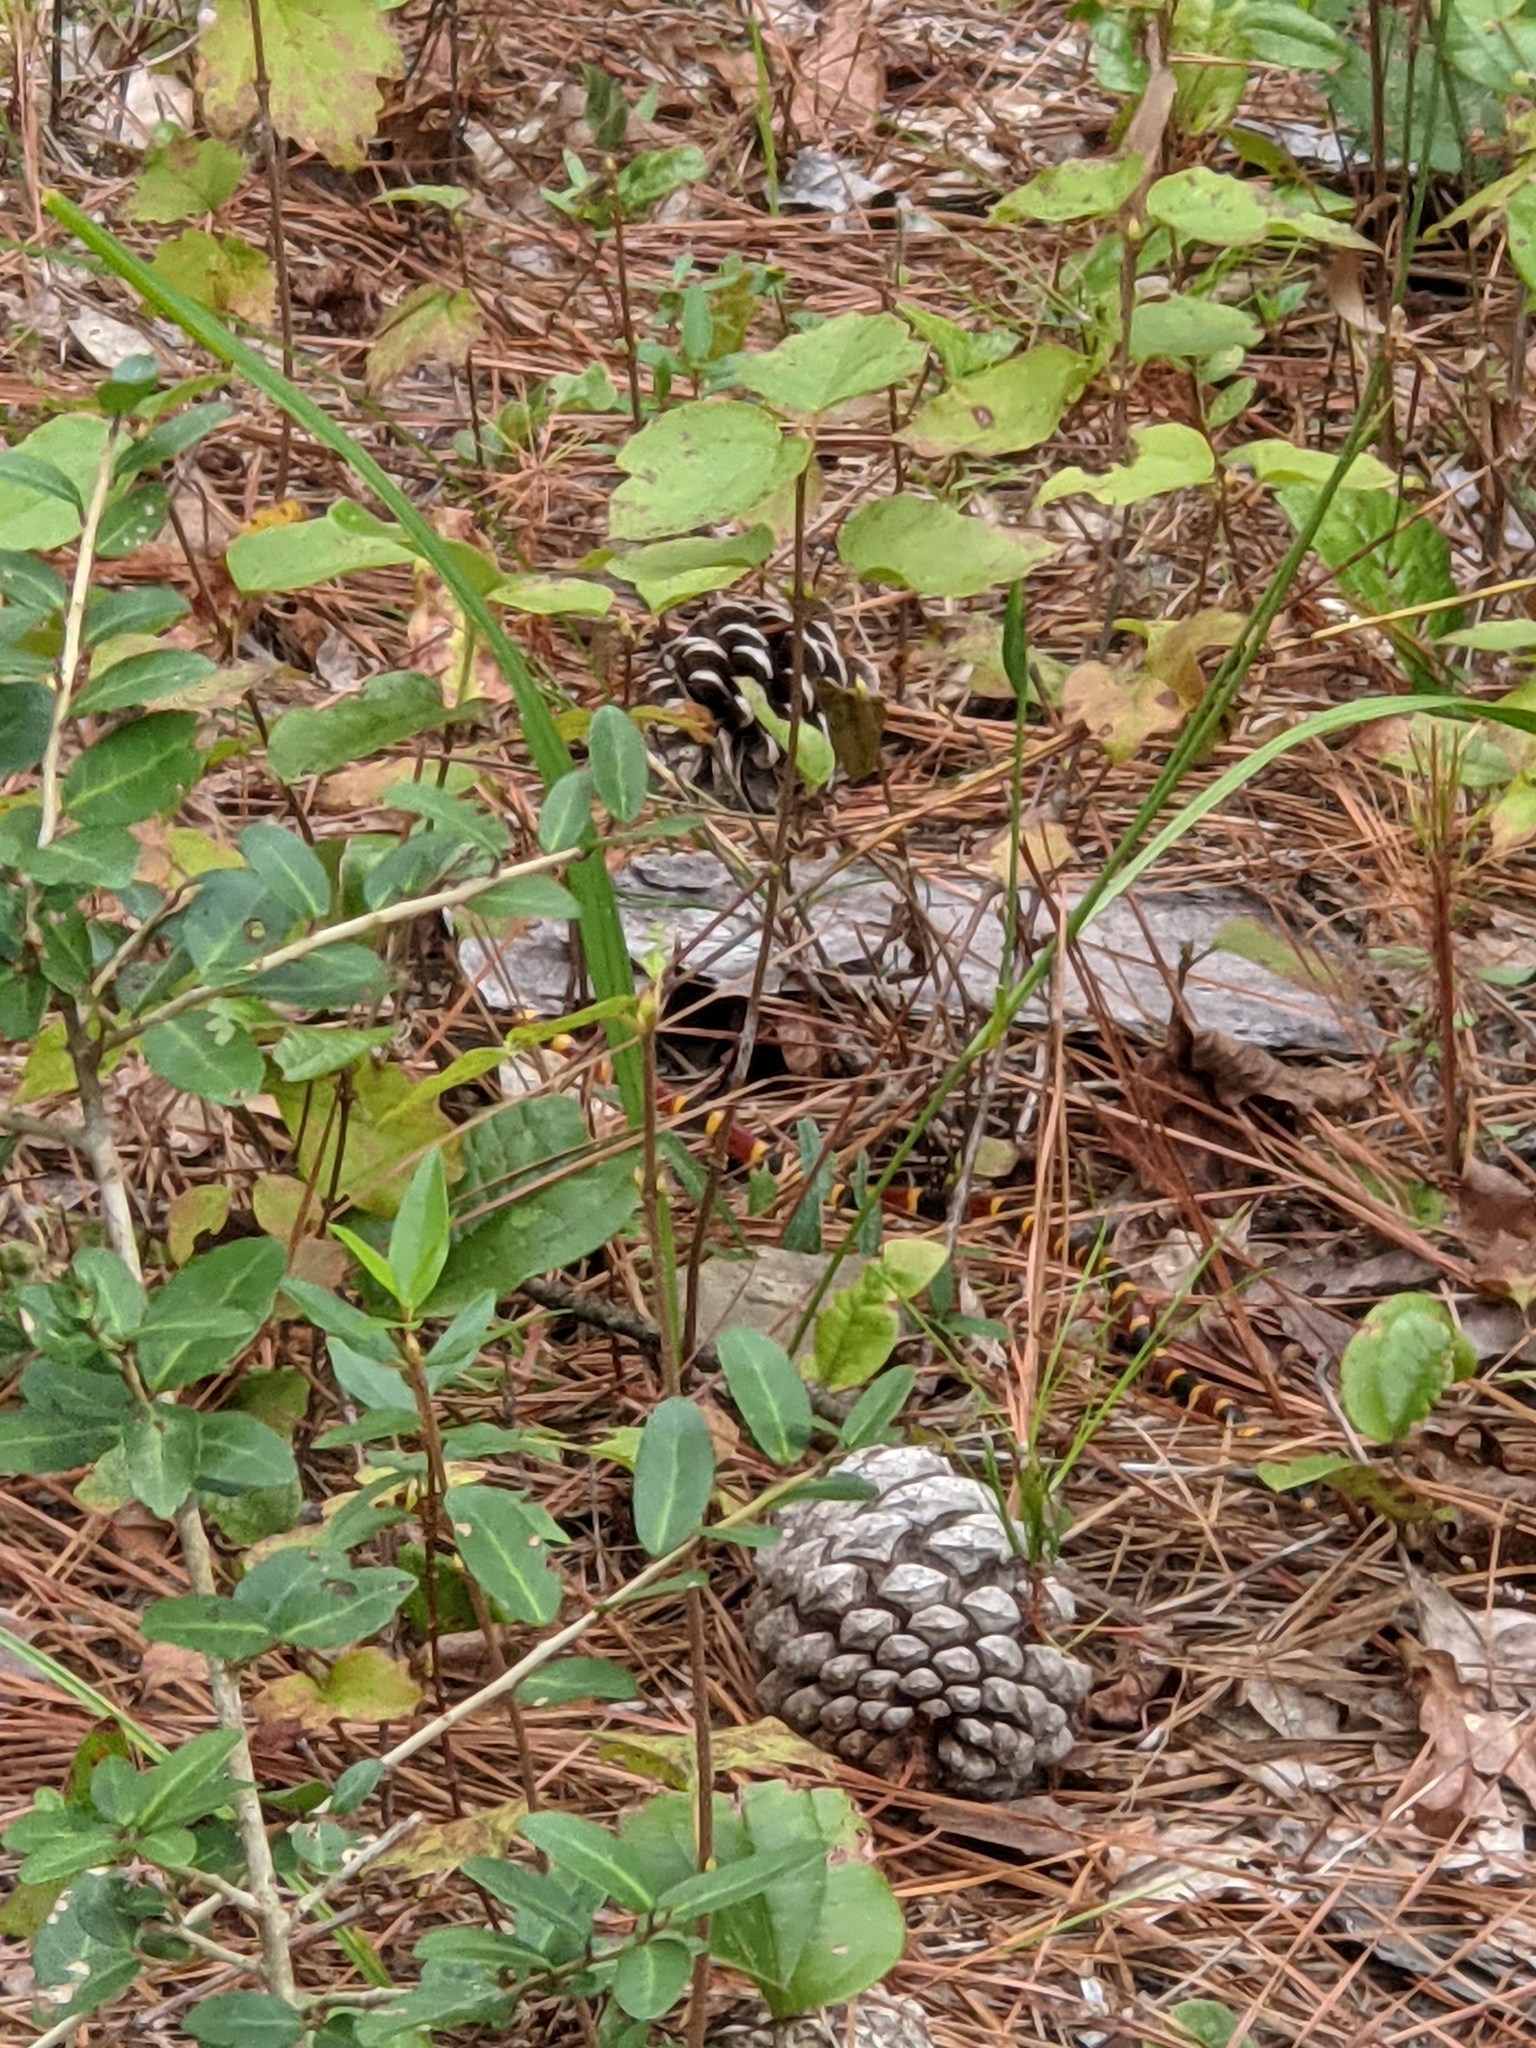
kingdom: Animalia
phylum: Chordata
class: Squamata
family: Elapidae
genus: Micrurus
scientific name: Micrurus tener
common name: Texas coral snake
